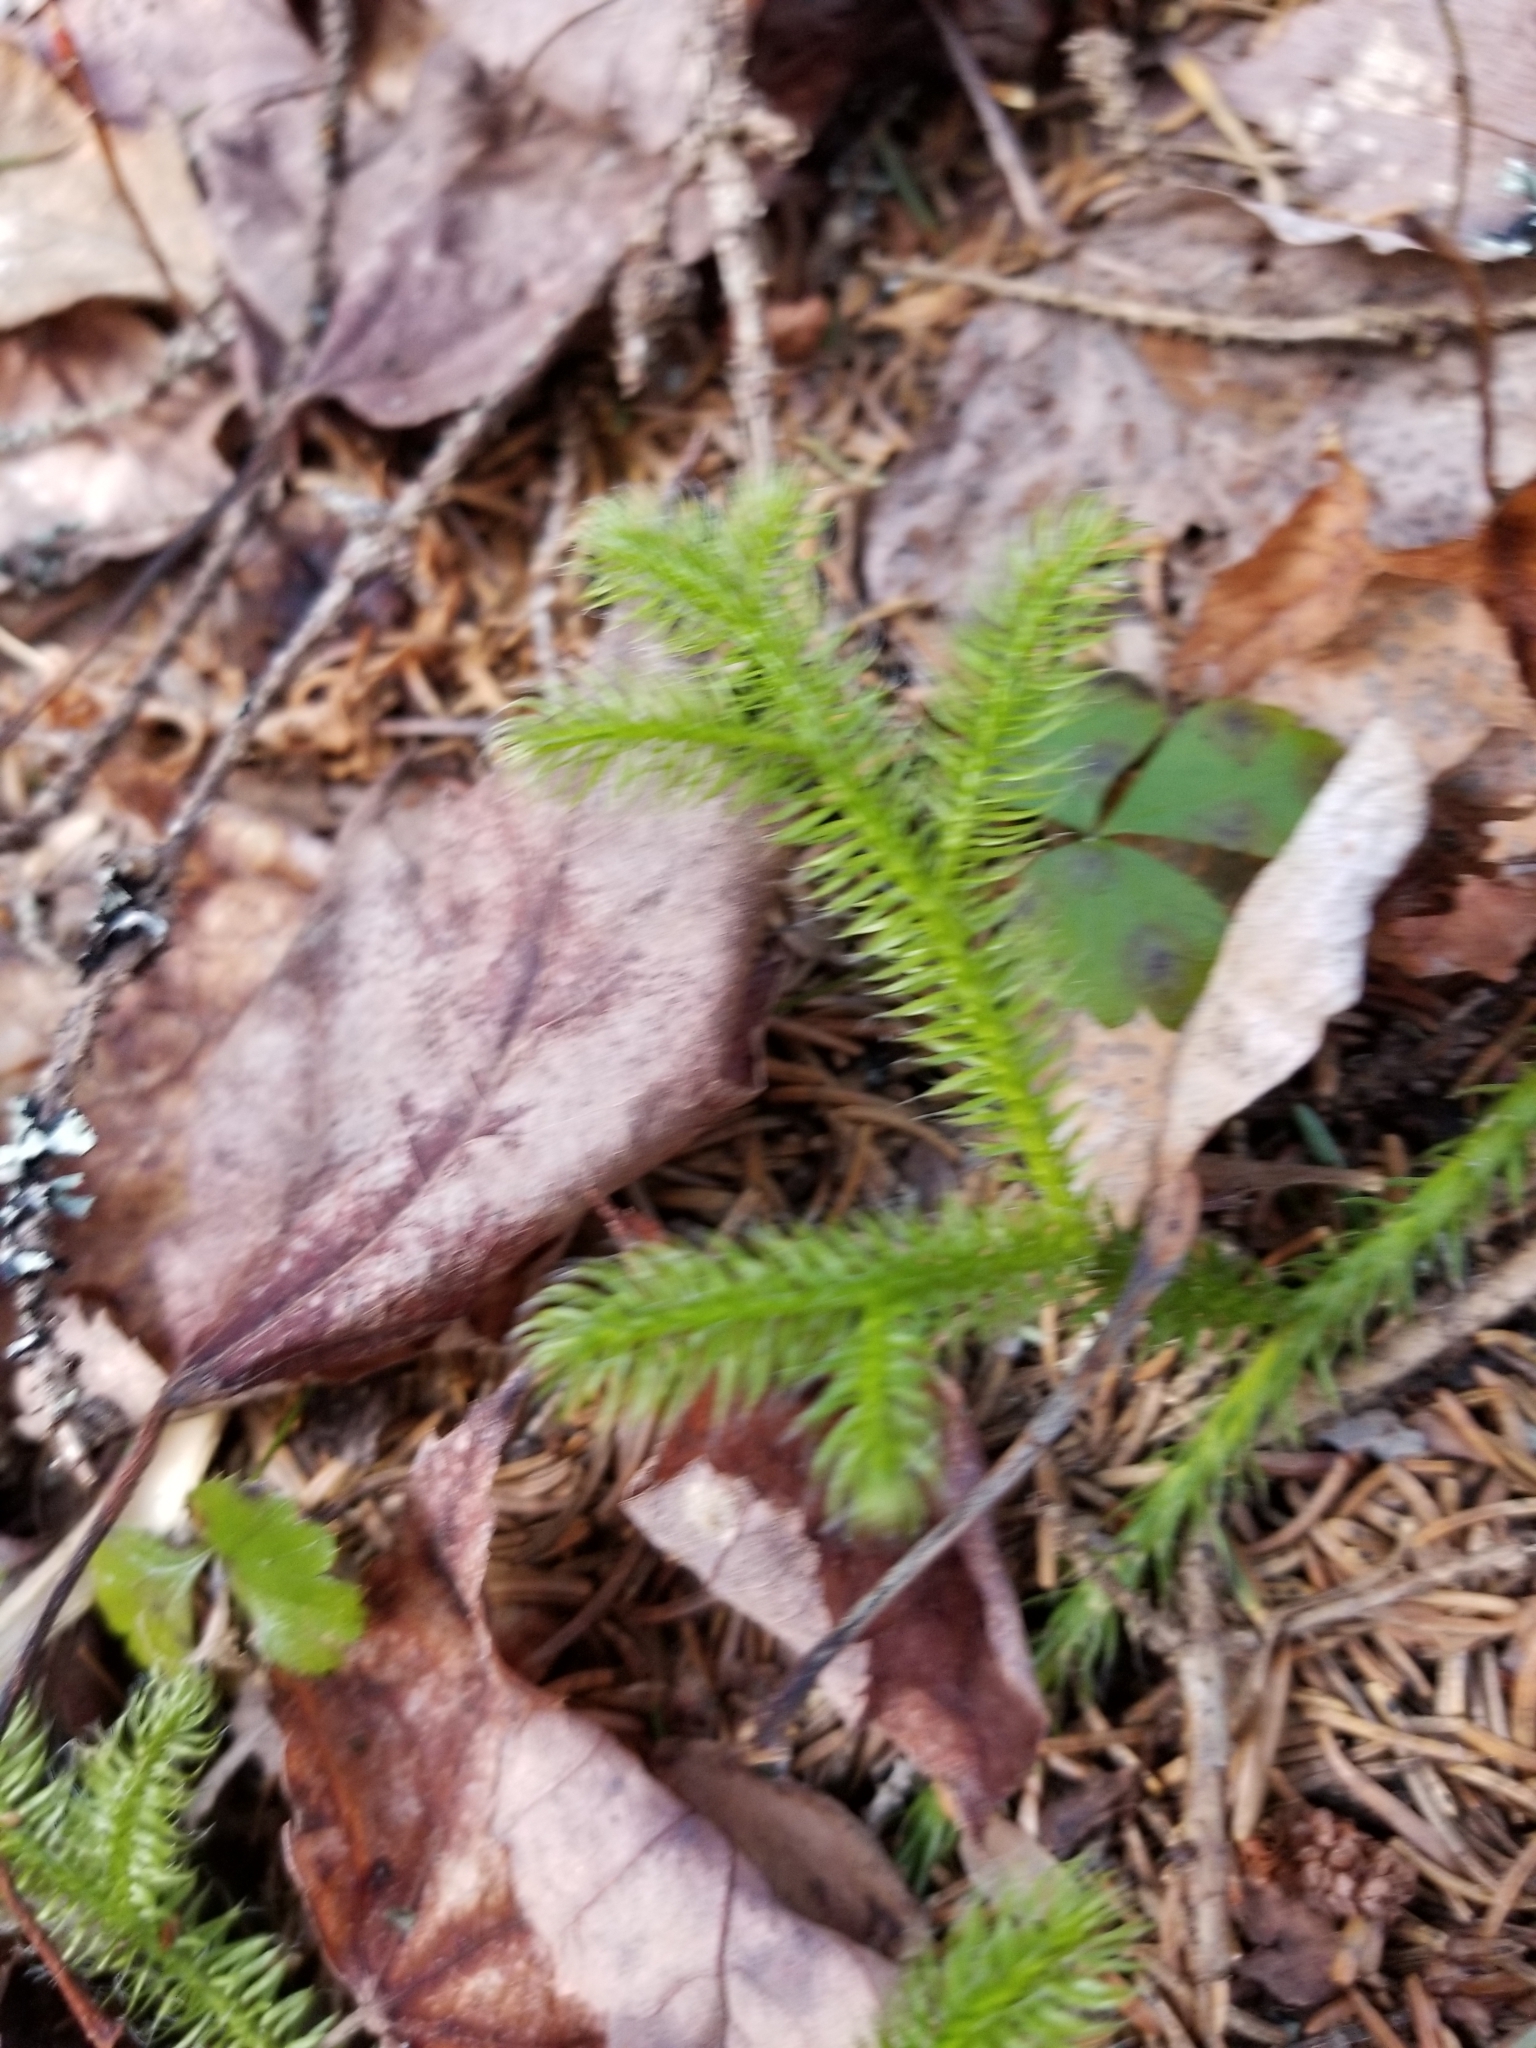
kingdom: Plantae
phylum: Tracheophyta
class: Lycopodiopsida
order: Lycopodiales
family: Lycopodiaceae
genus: Lycopodium
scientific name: Lycopodium clavatum
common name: Stag's-horn clubmoss
